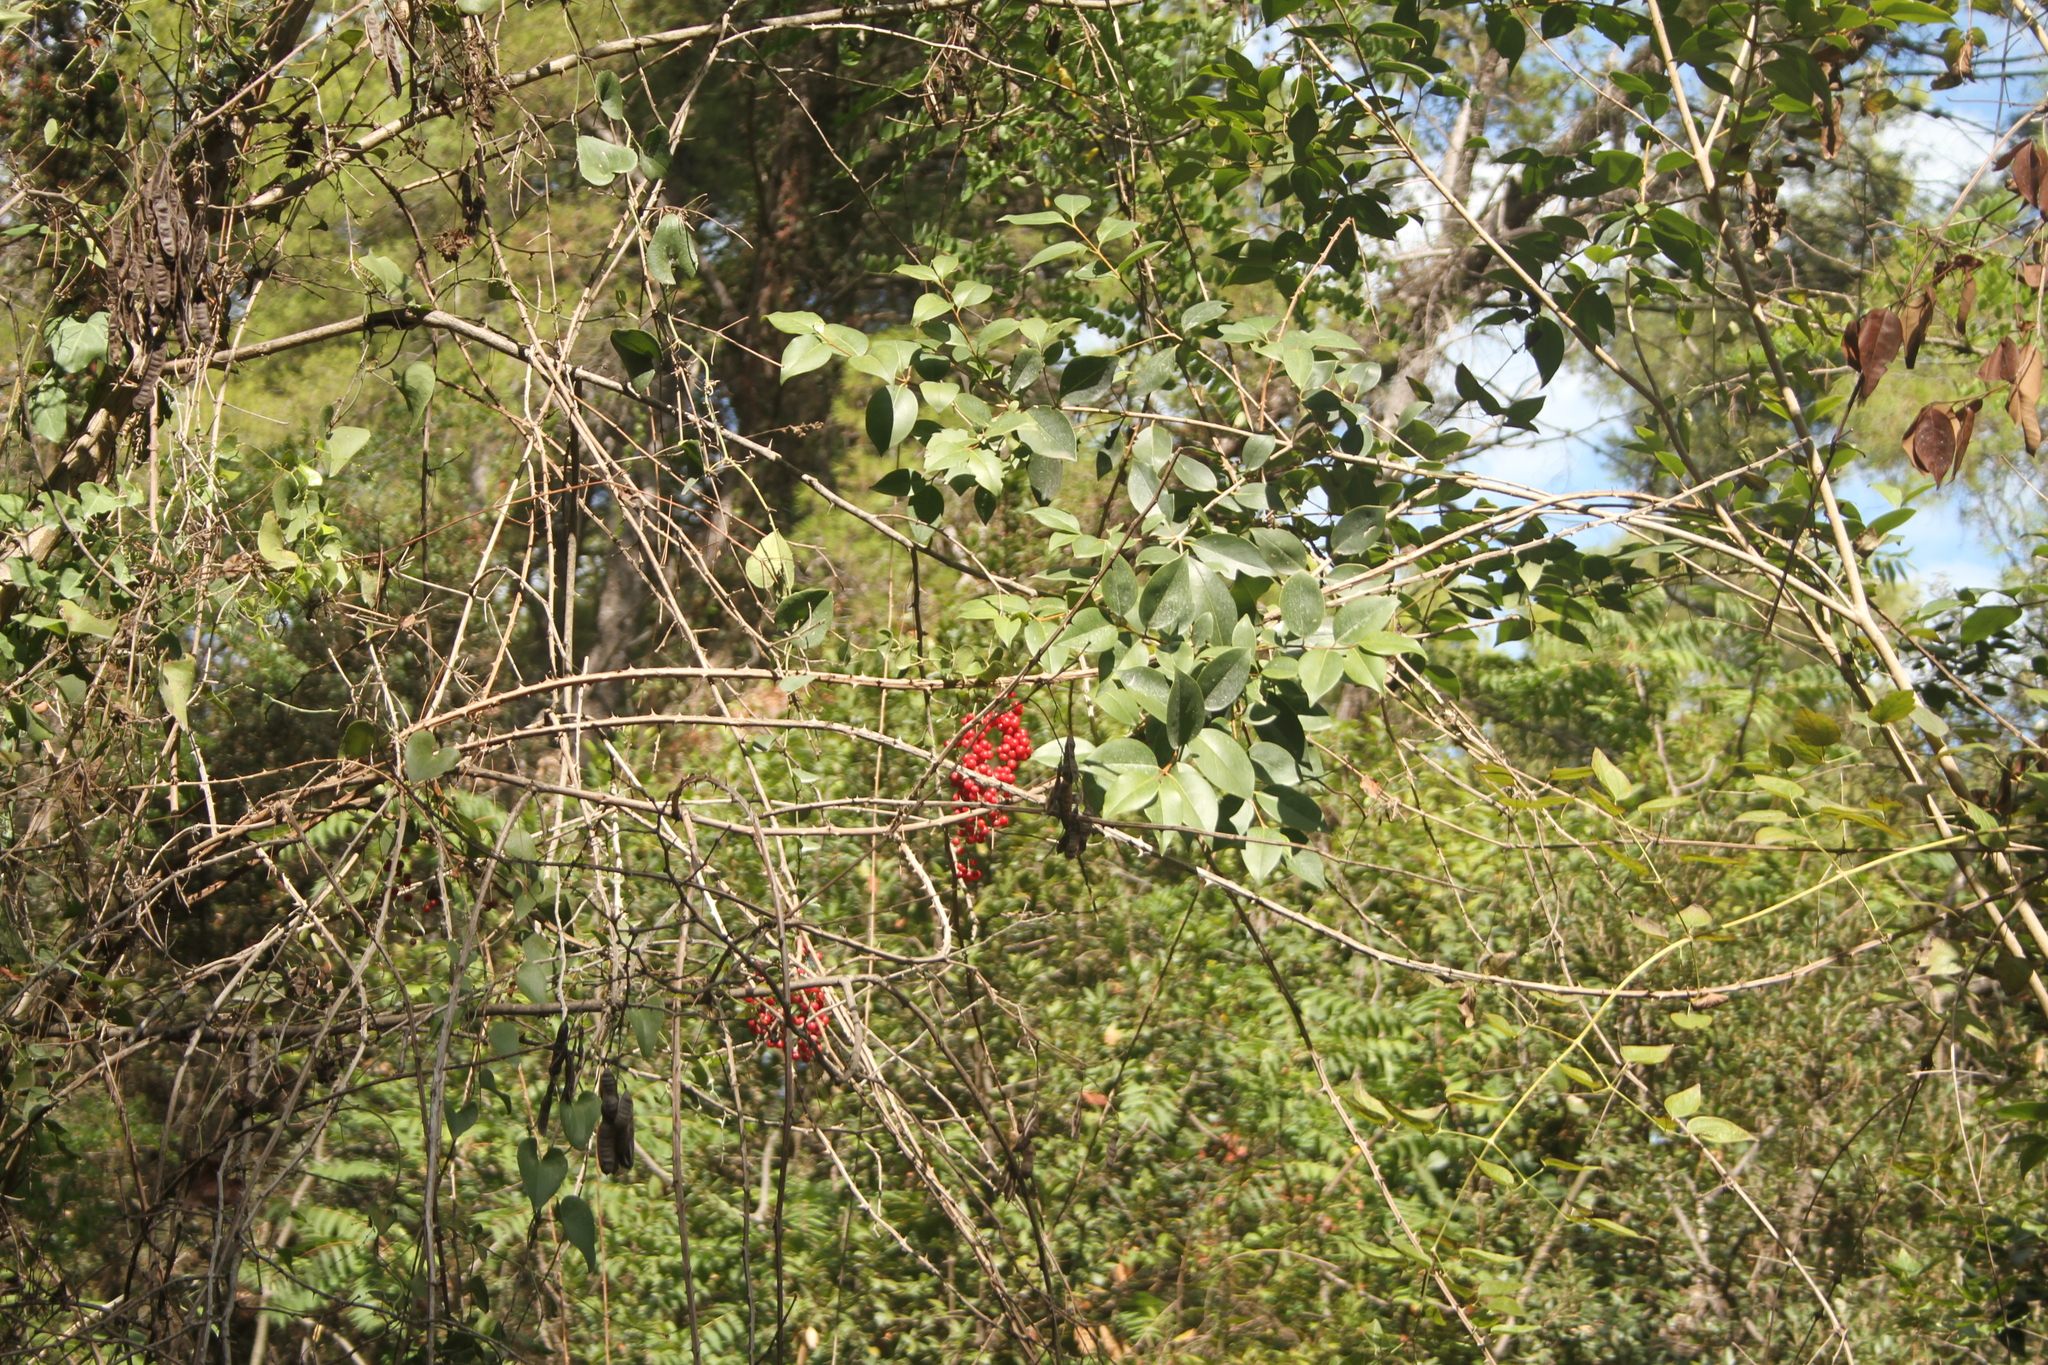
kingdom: Plantae
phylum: Tracheophyta
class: Liliopsida
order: Liliales
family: Smilacaceae
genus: Smilax
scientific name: Smilax aspera
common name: Common smilax
